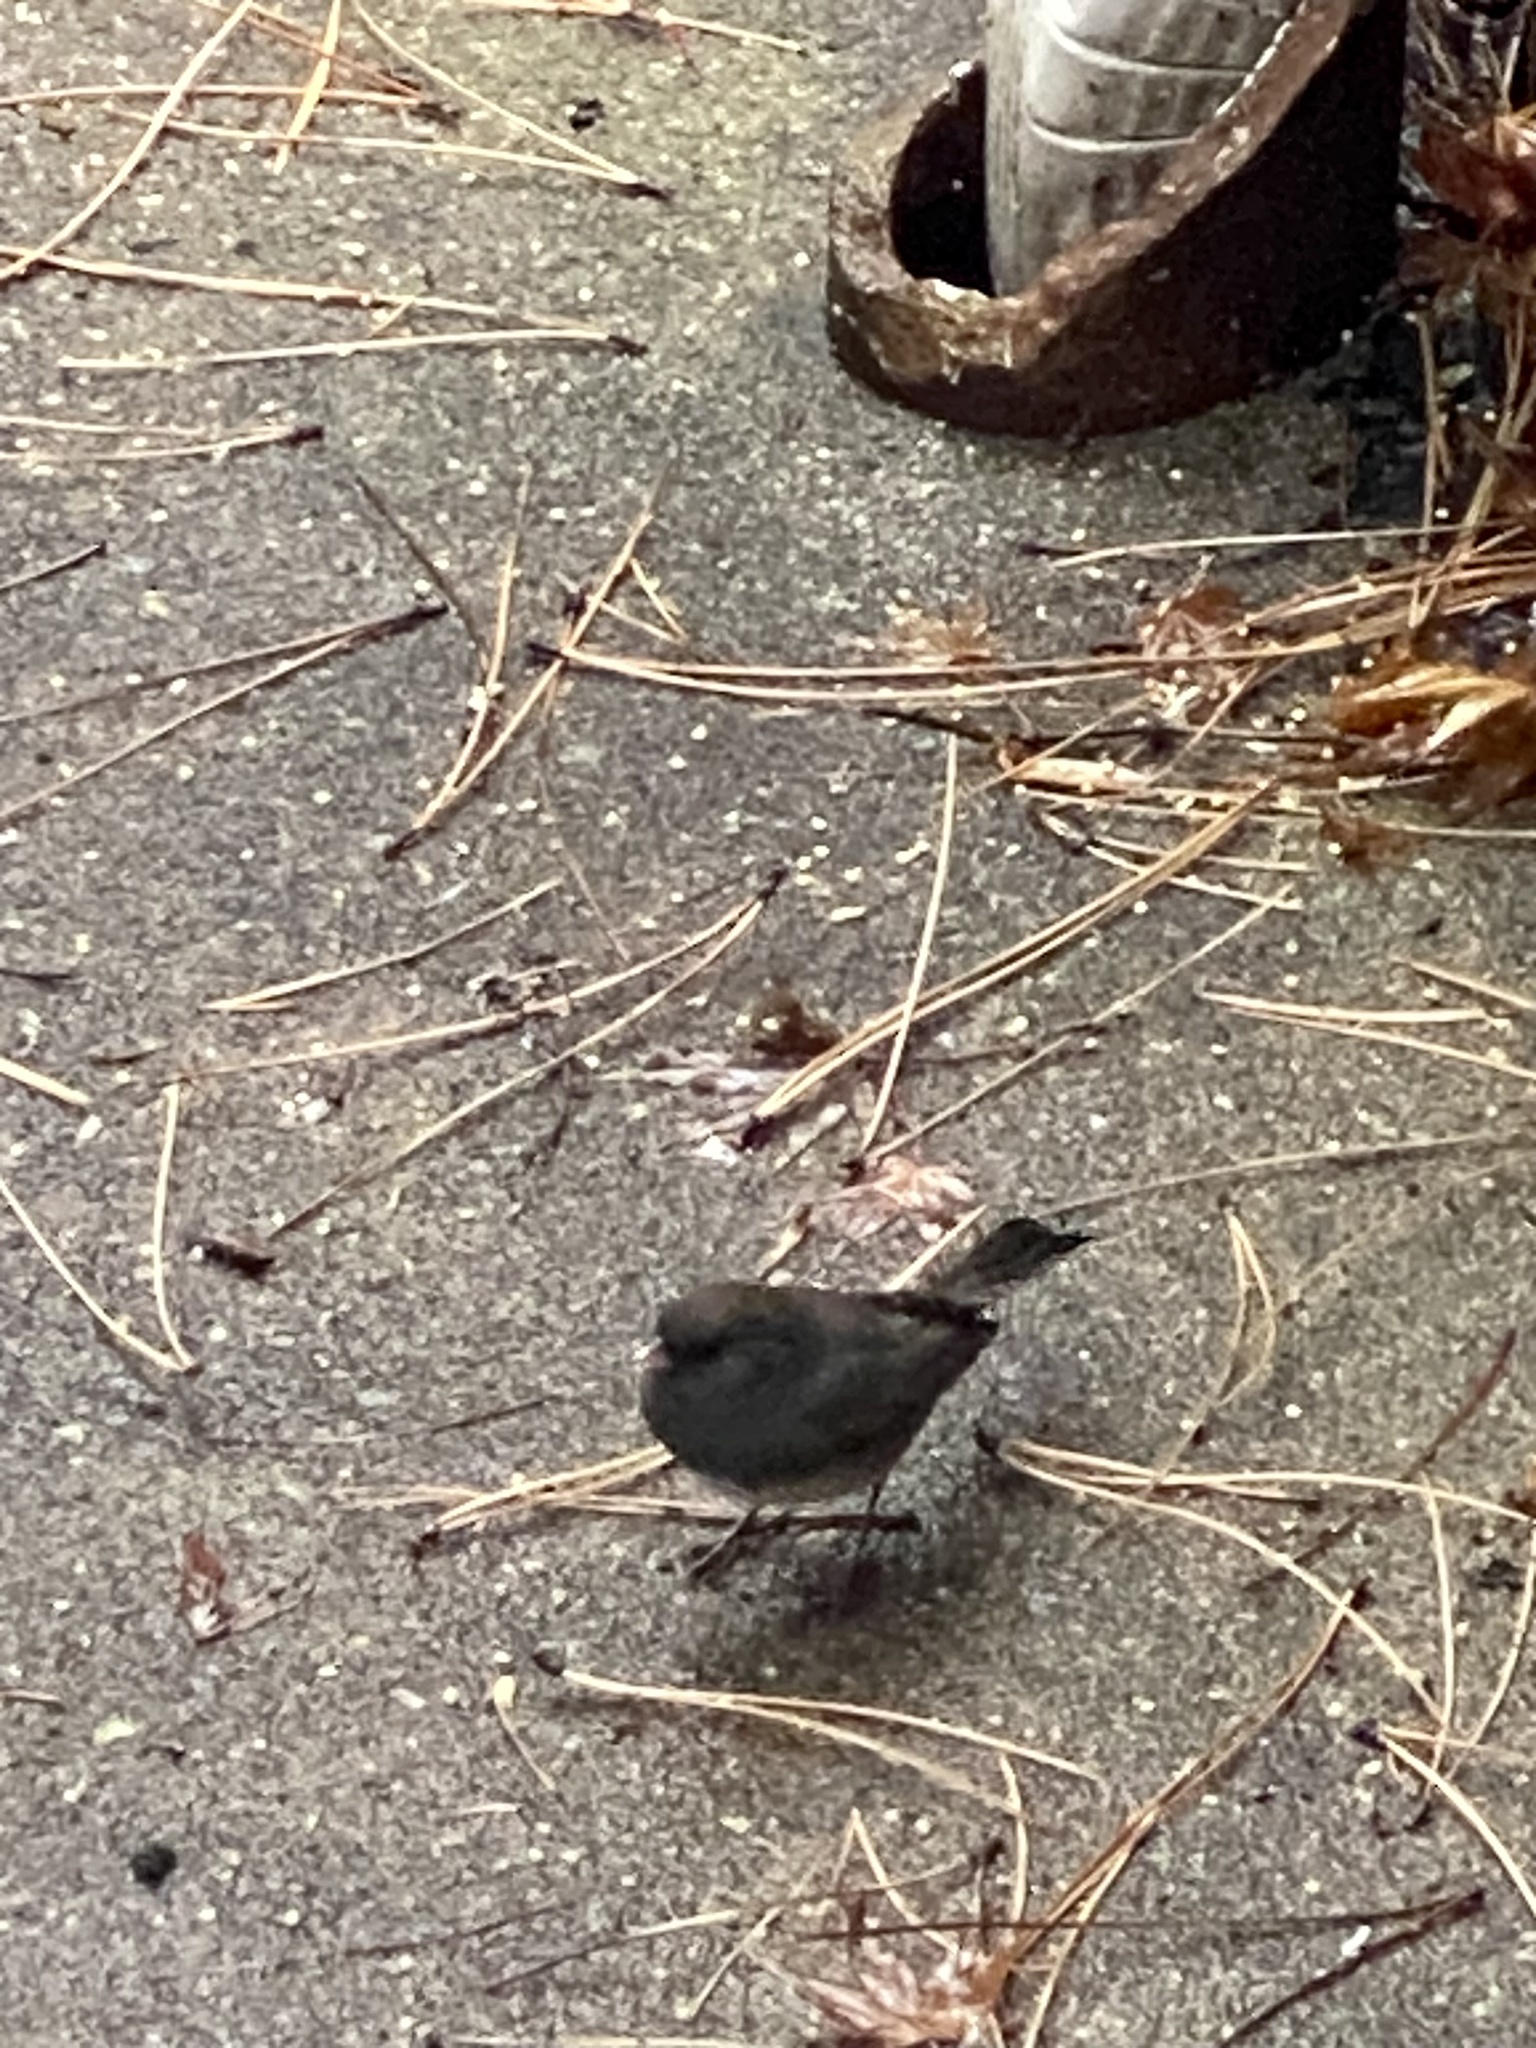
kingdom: Animalia
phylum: Chordata
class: Aves
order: Passeriformes
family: Passerellidae
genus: Junco
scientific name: Junco hyemalis
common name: Dark-eyed junco
